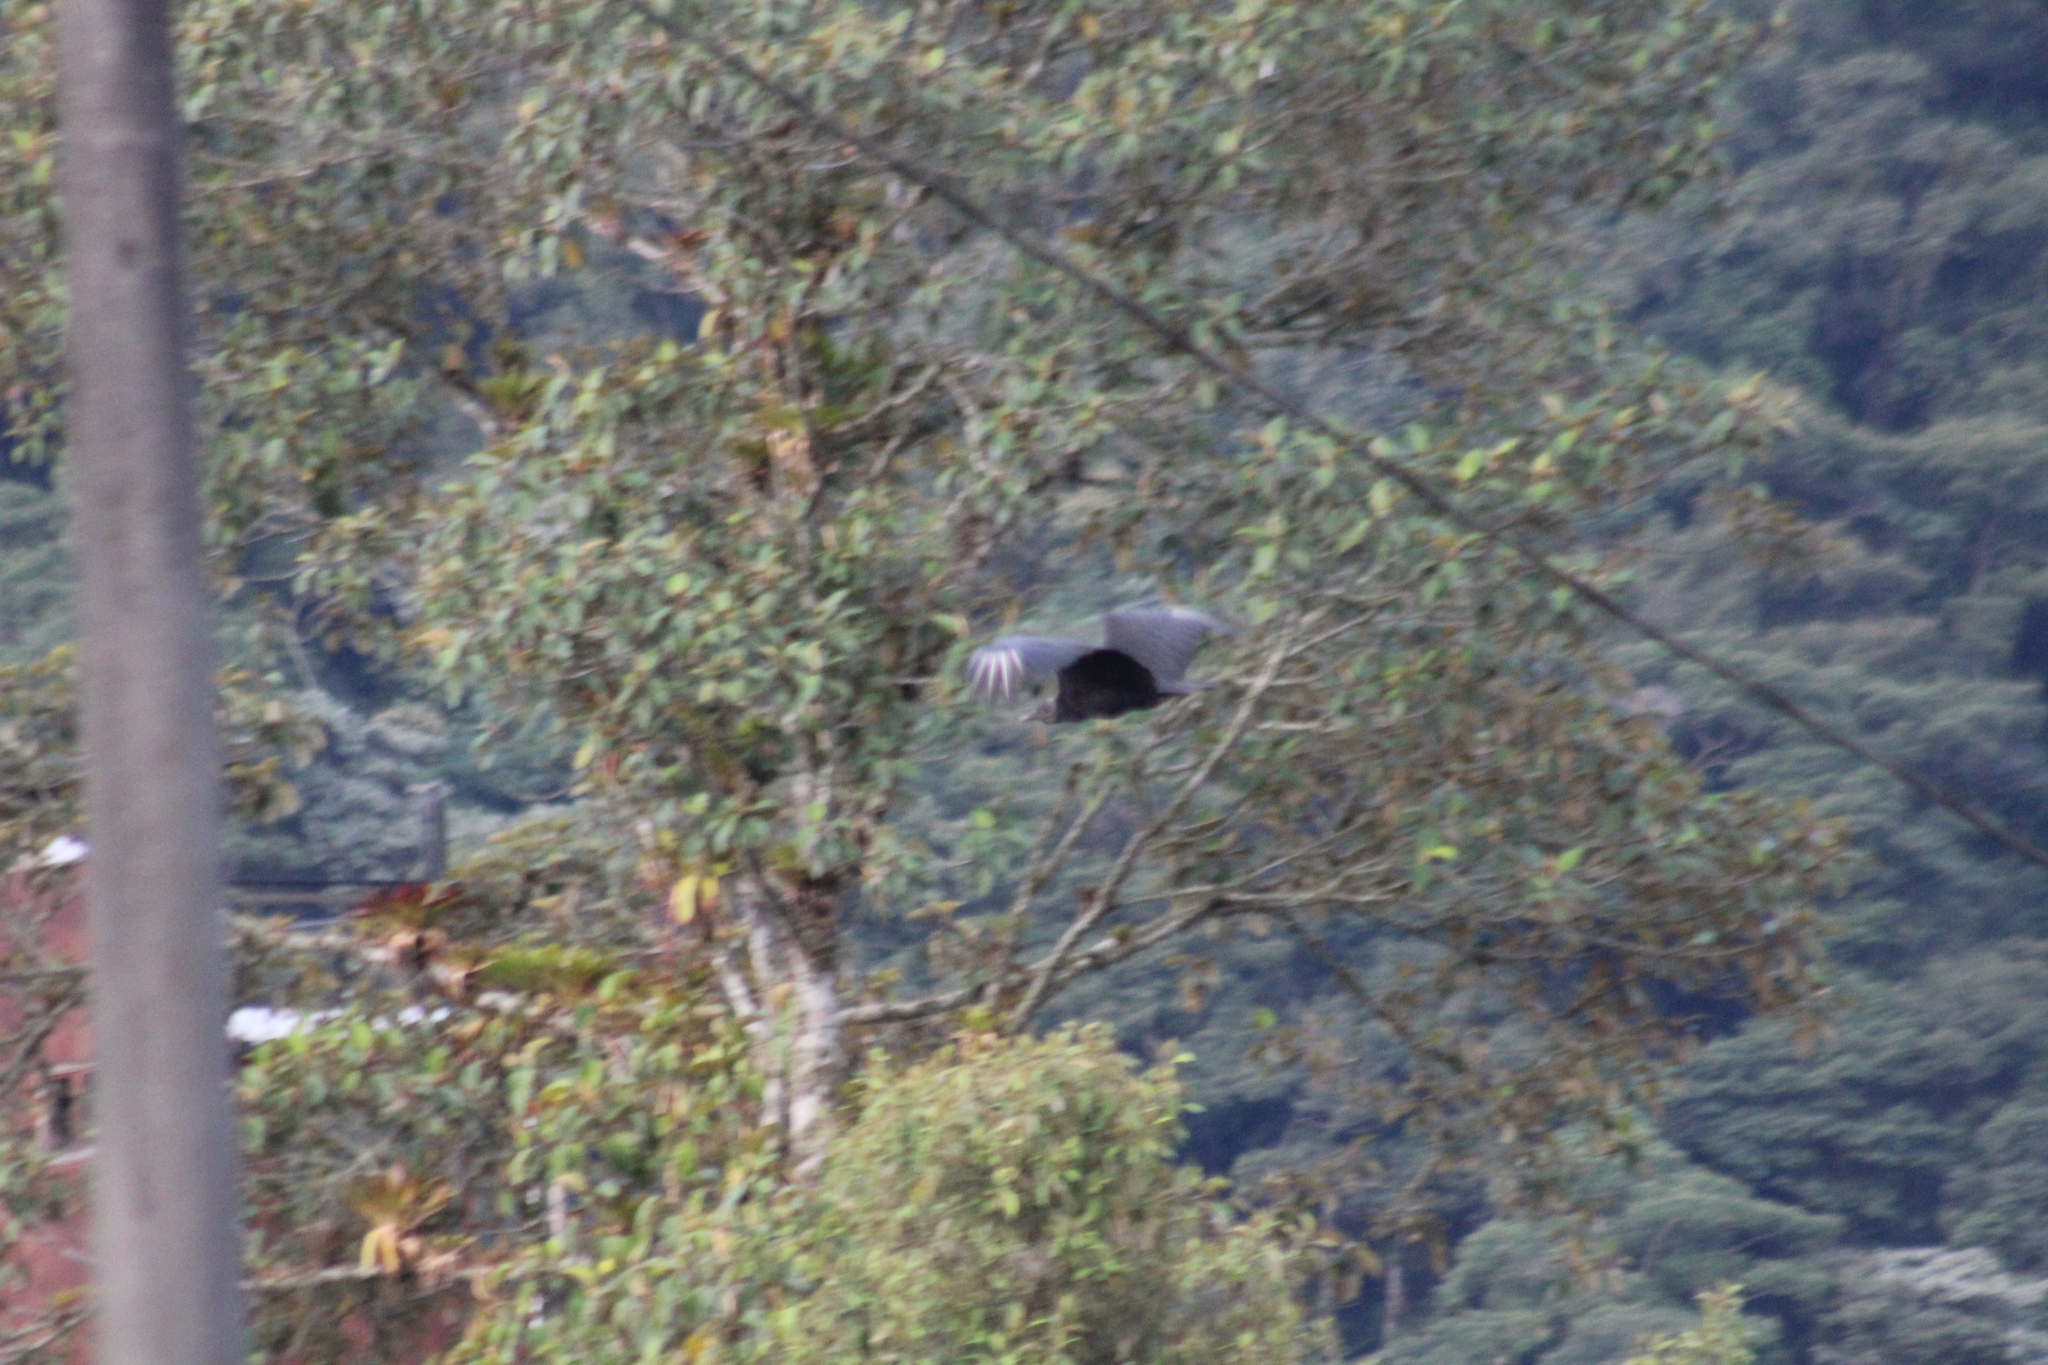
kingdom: Animalia
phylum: Chordata
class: Aves
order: Accipitriformes
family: Cathartidae
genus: Coragyps
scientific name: Coragyps atratus
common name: Black vulture
